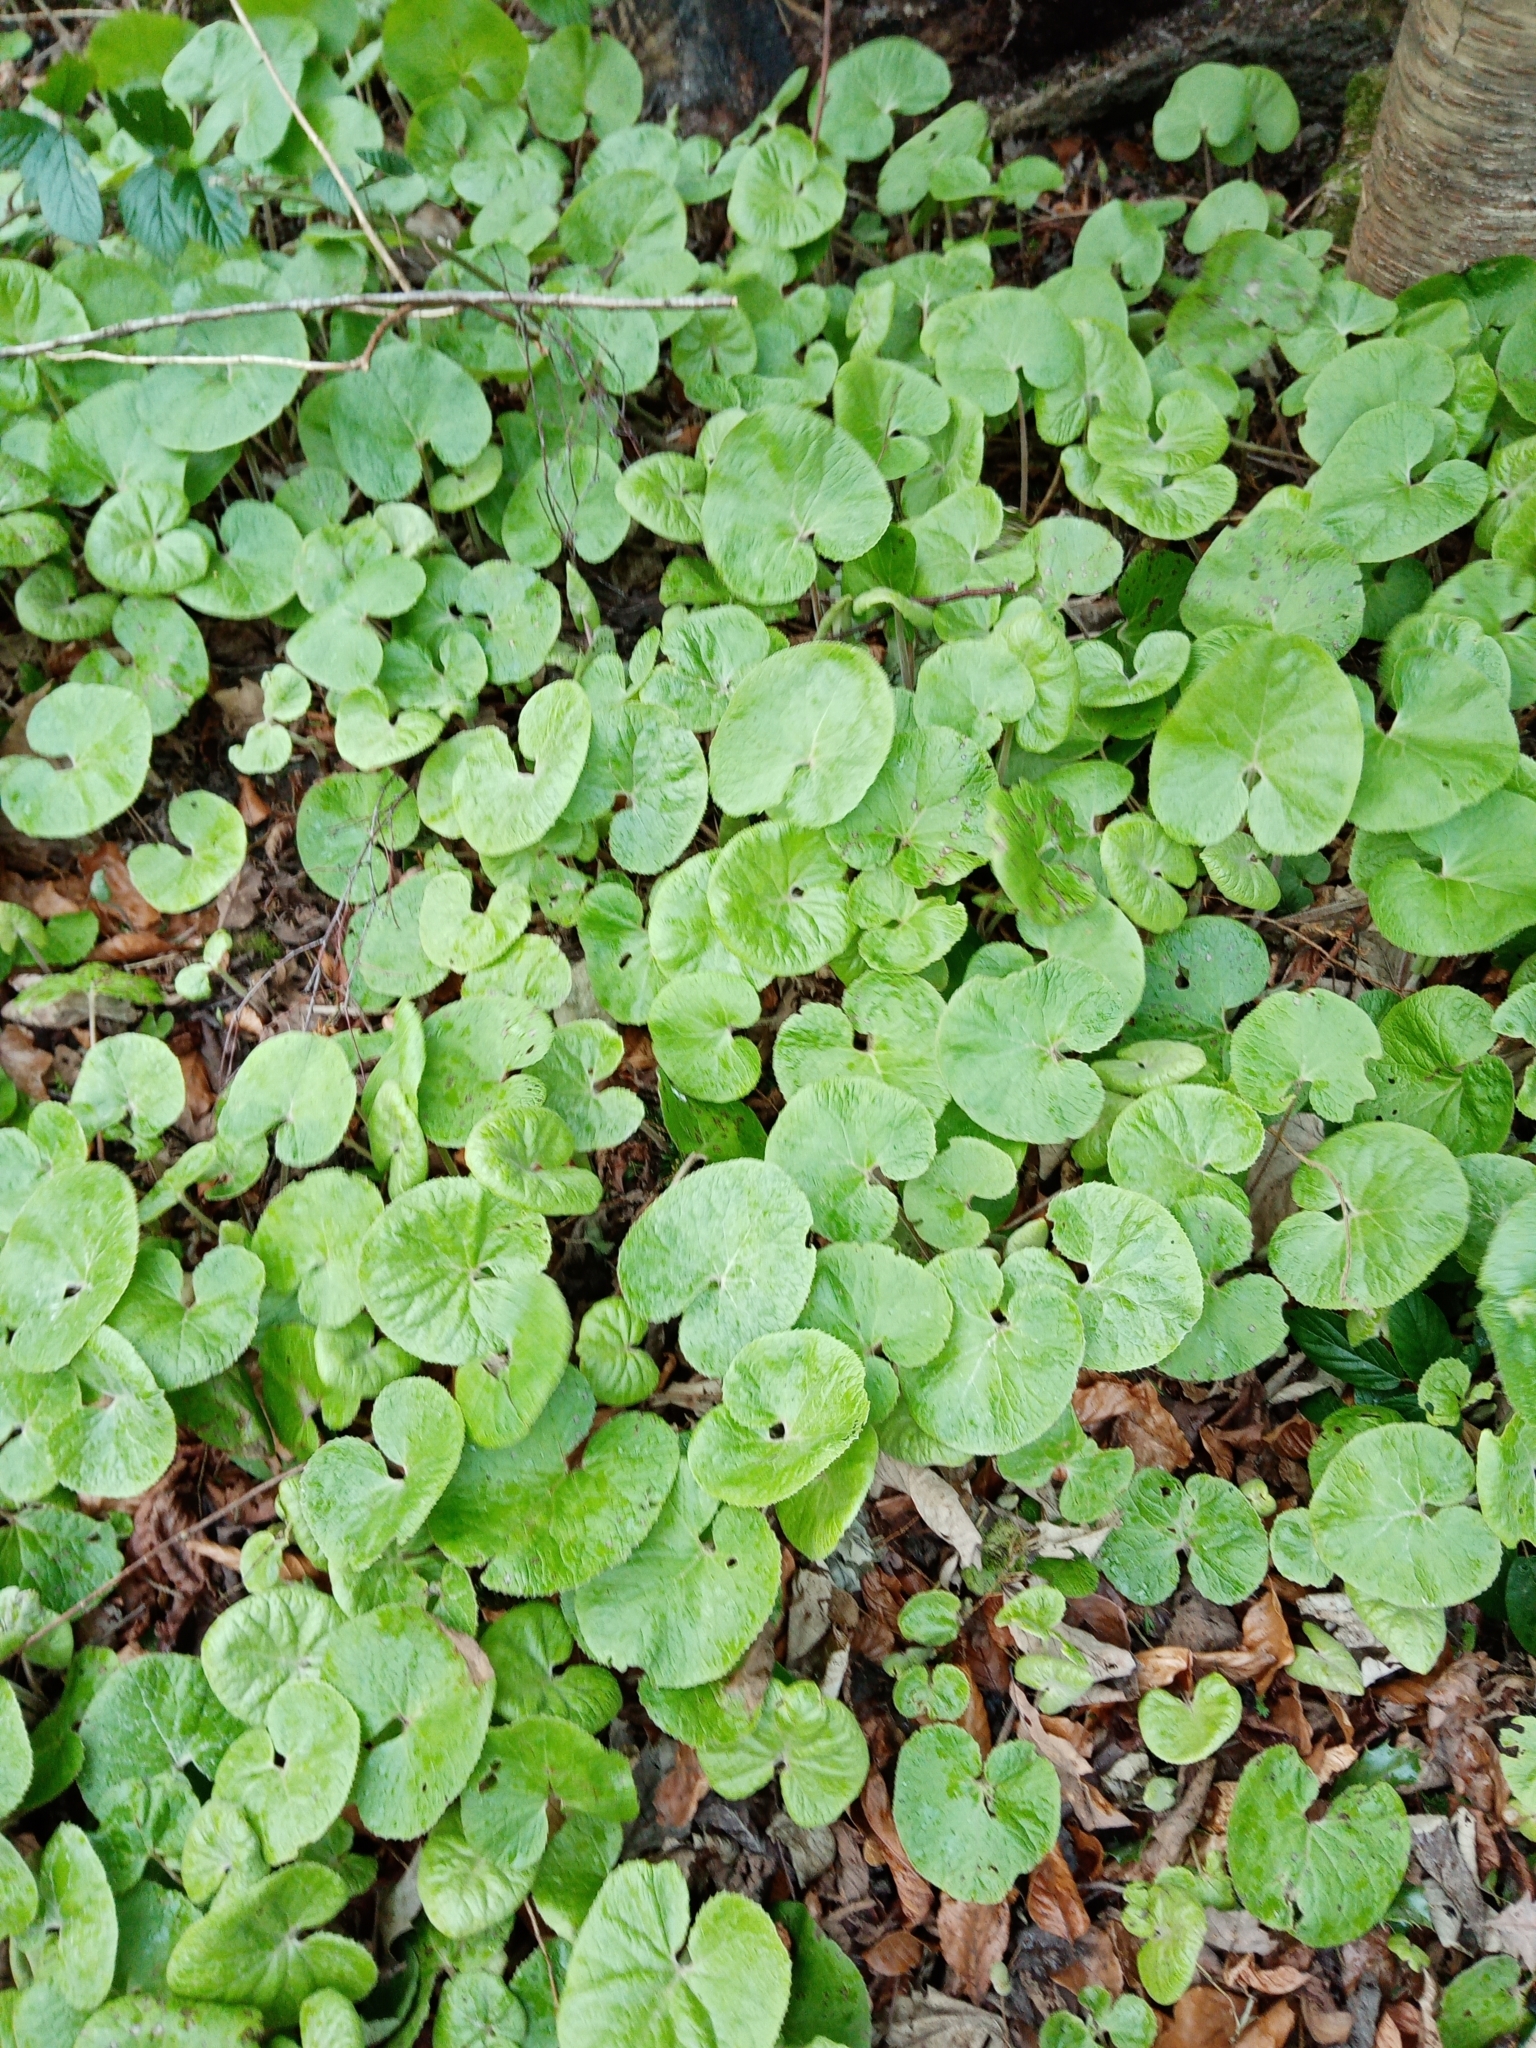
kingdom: Plantae
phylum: Tracheophyta
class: Magnoliopsida
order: Asterales
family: Asteraceae
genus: Petasites
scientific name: Petasites pyrenaicus
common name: Winter heliotrope
